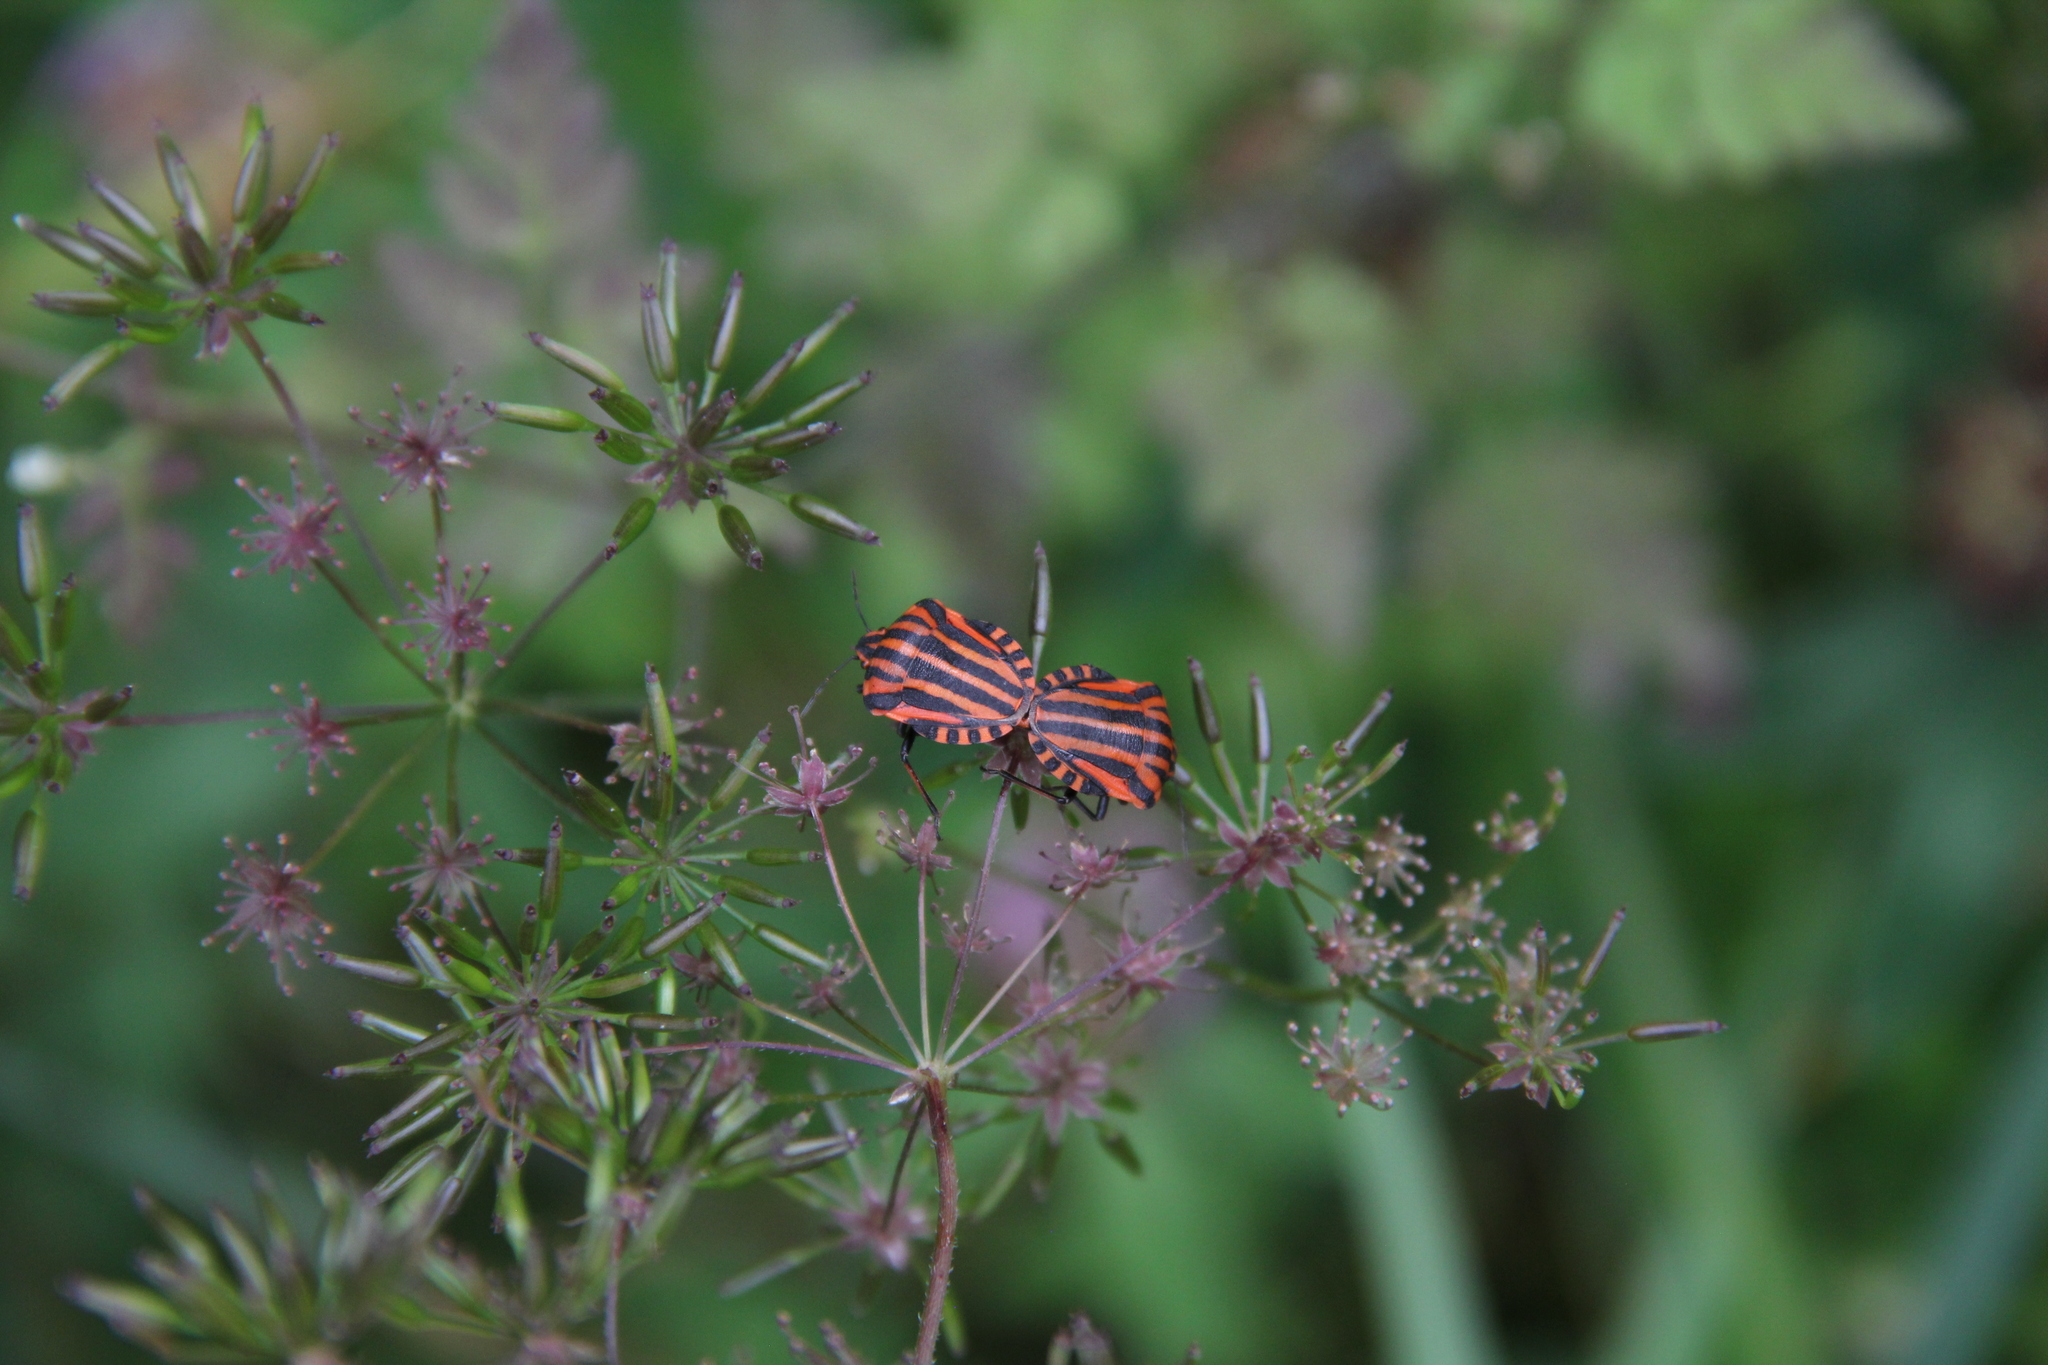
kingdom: Animalia
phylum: Arthropoda
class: Insecta
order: Hemiptera
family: Pentatomidae
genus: Graphosoma
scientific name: Graphosoma italicum
